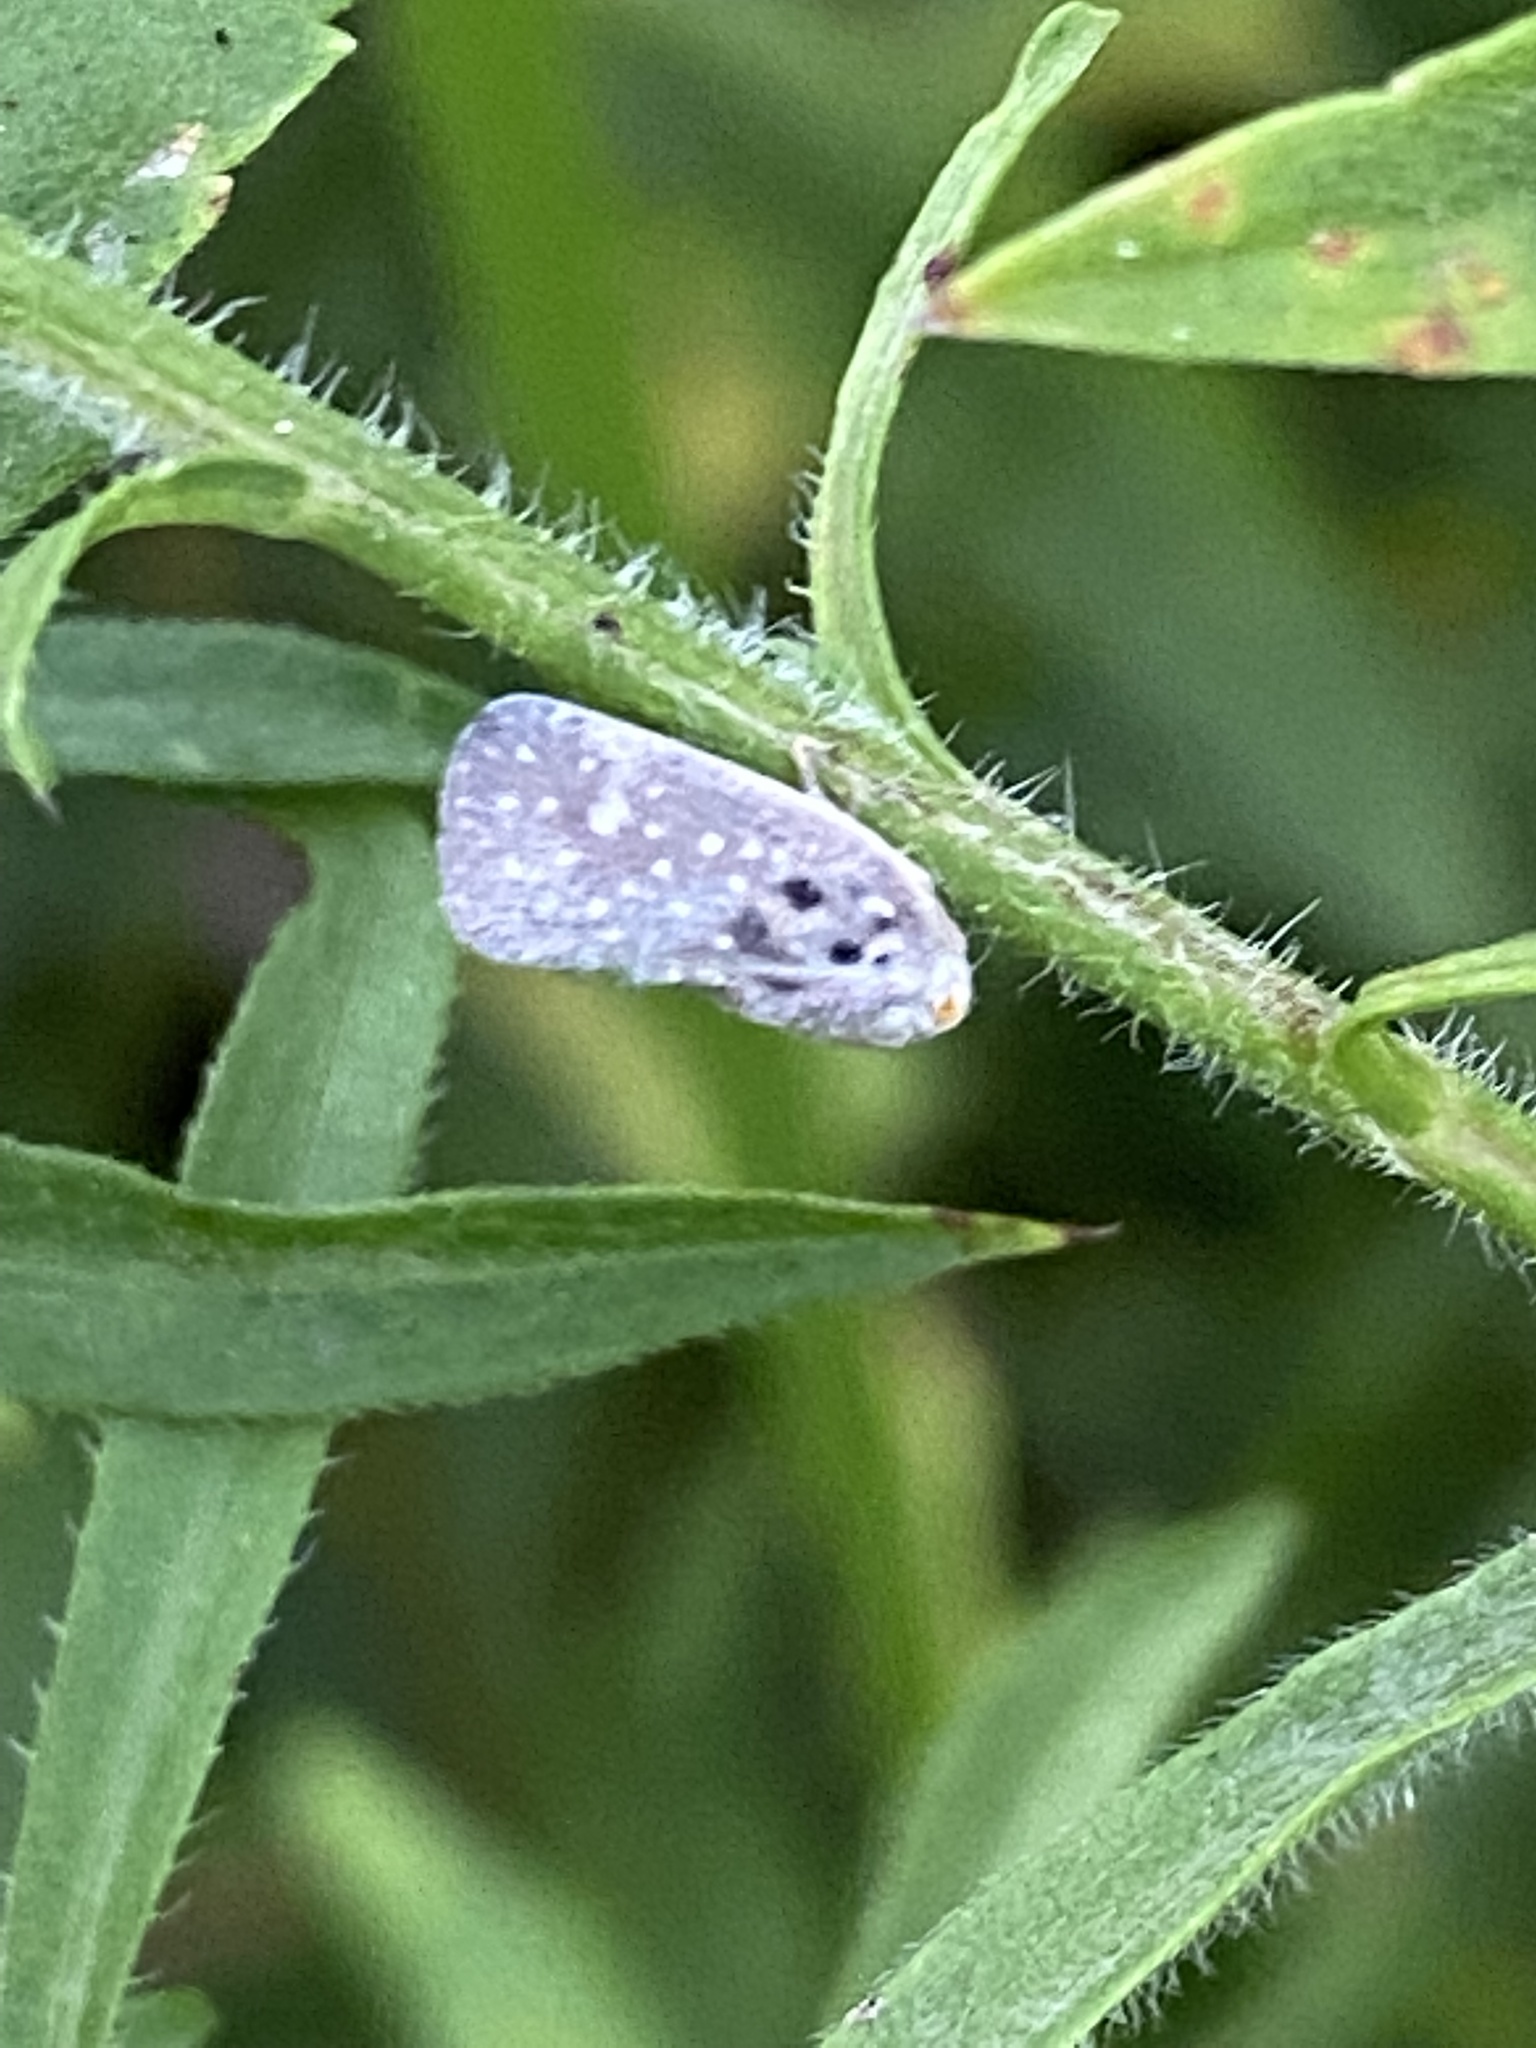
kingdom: Animalia
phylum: Arthropoda
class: Insecta
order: Hemiptera
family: Flatidae
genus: Metcalfa
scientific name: Metcalfa pruinosa
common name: Citrus flatid planthopper
